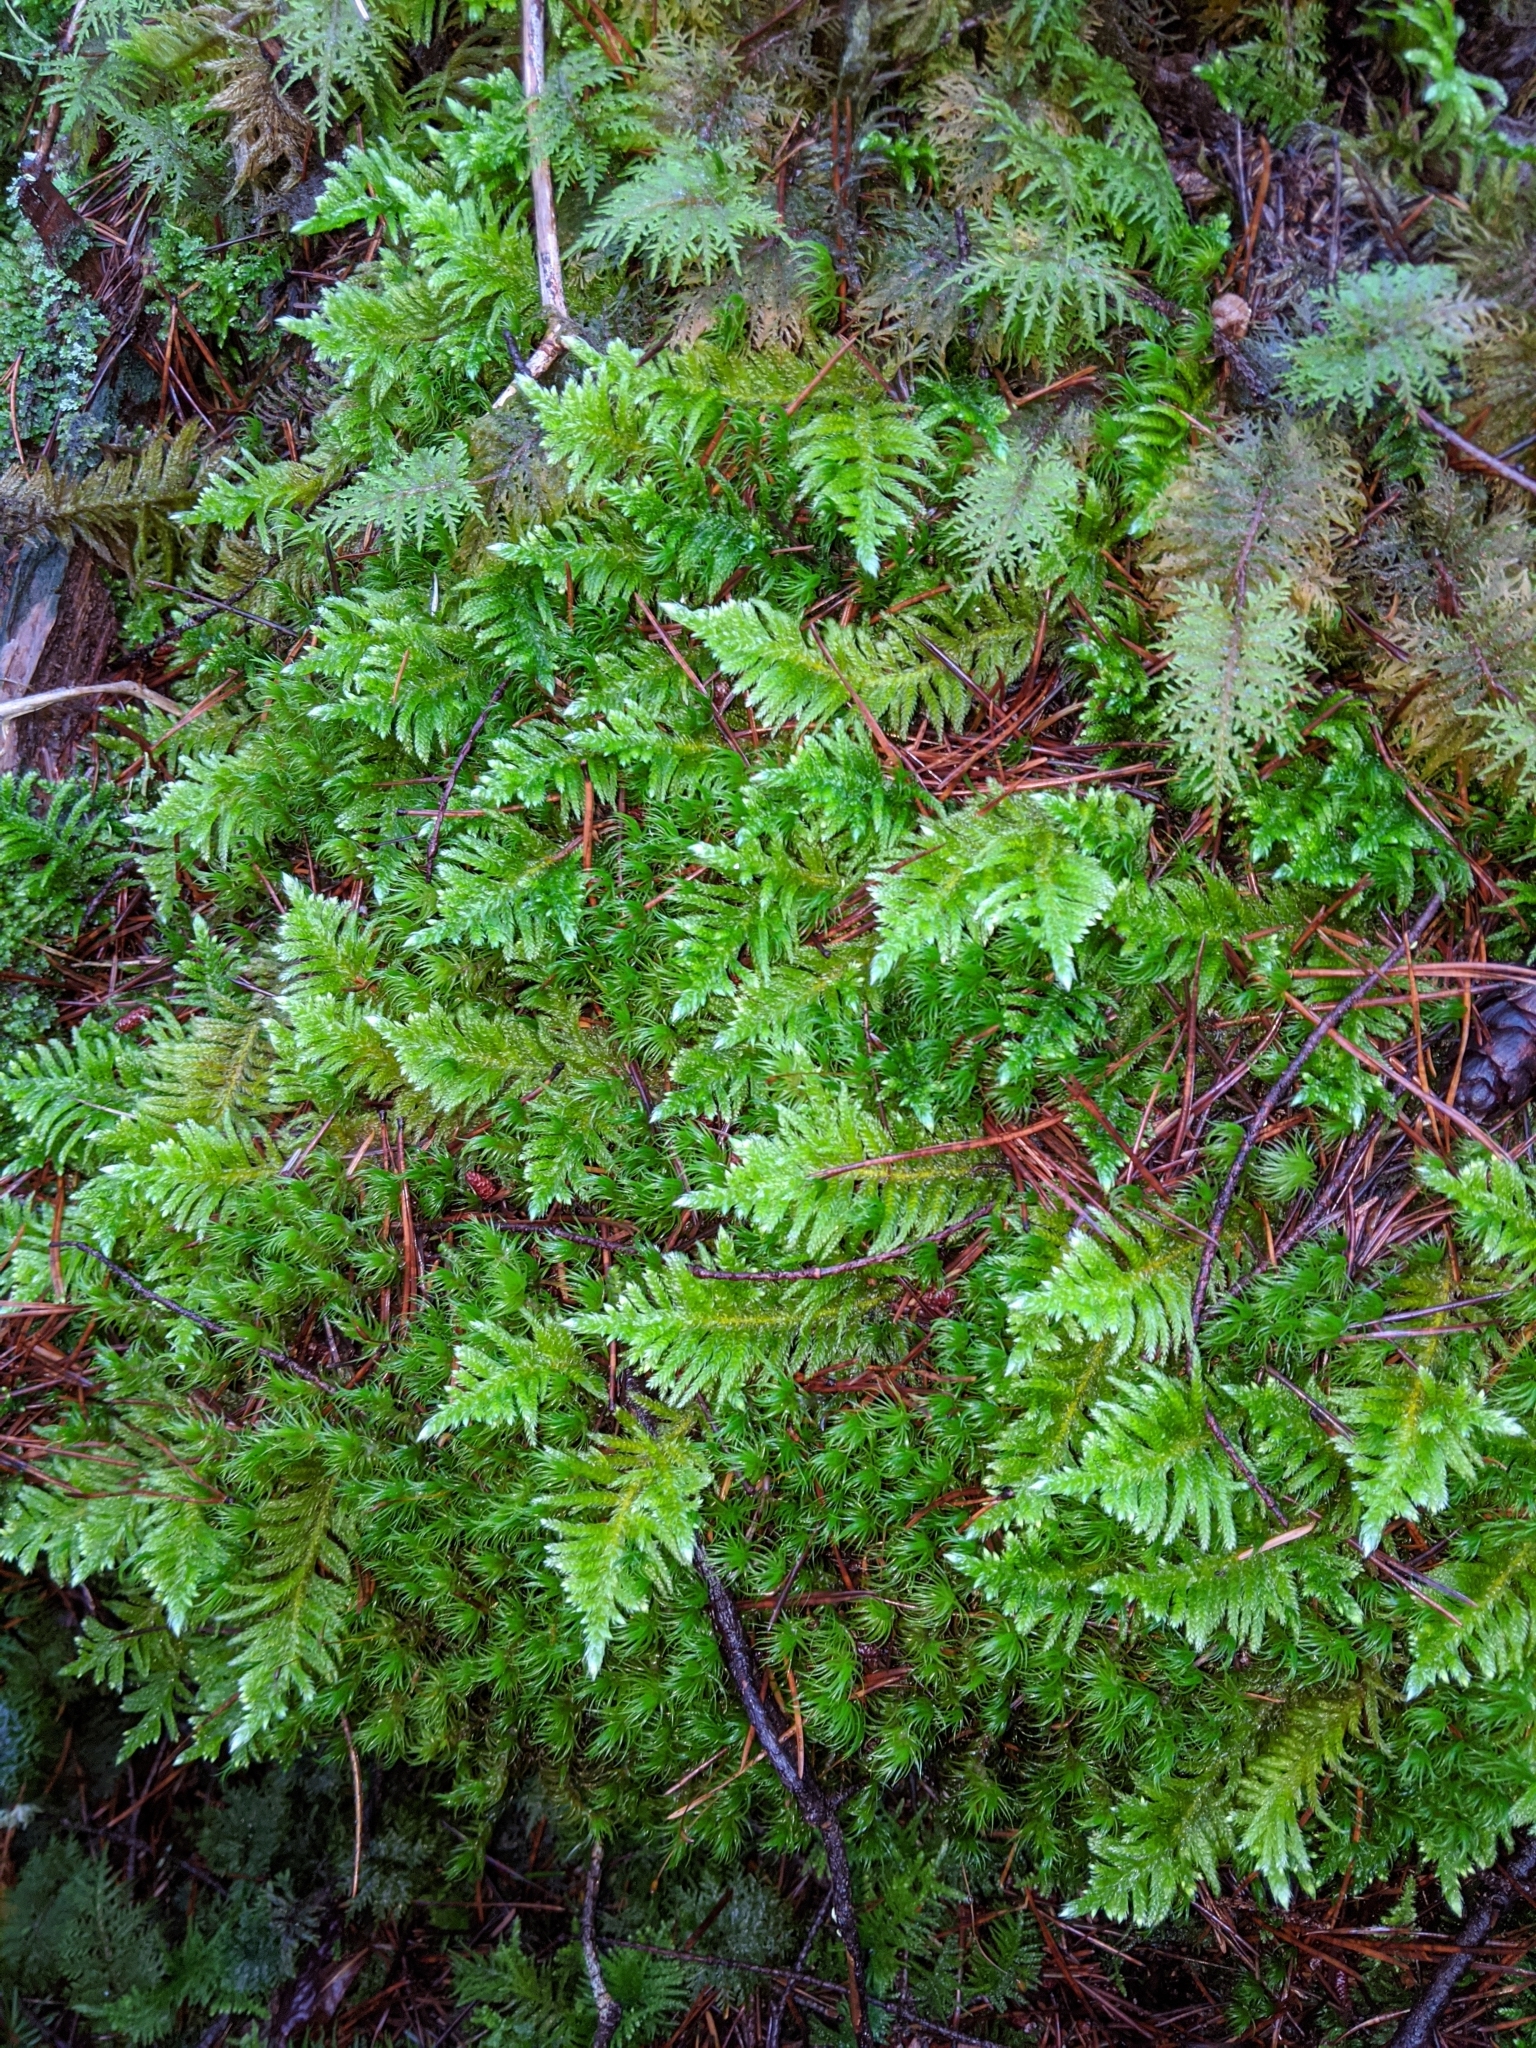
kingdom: Plantae
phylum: Bryophyta
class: Bryopsida
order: Hypnales
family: Brachytheciaceae
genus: Homalothecium
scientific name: Homalothecium megaptilum
